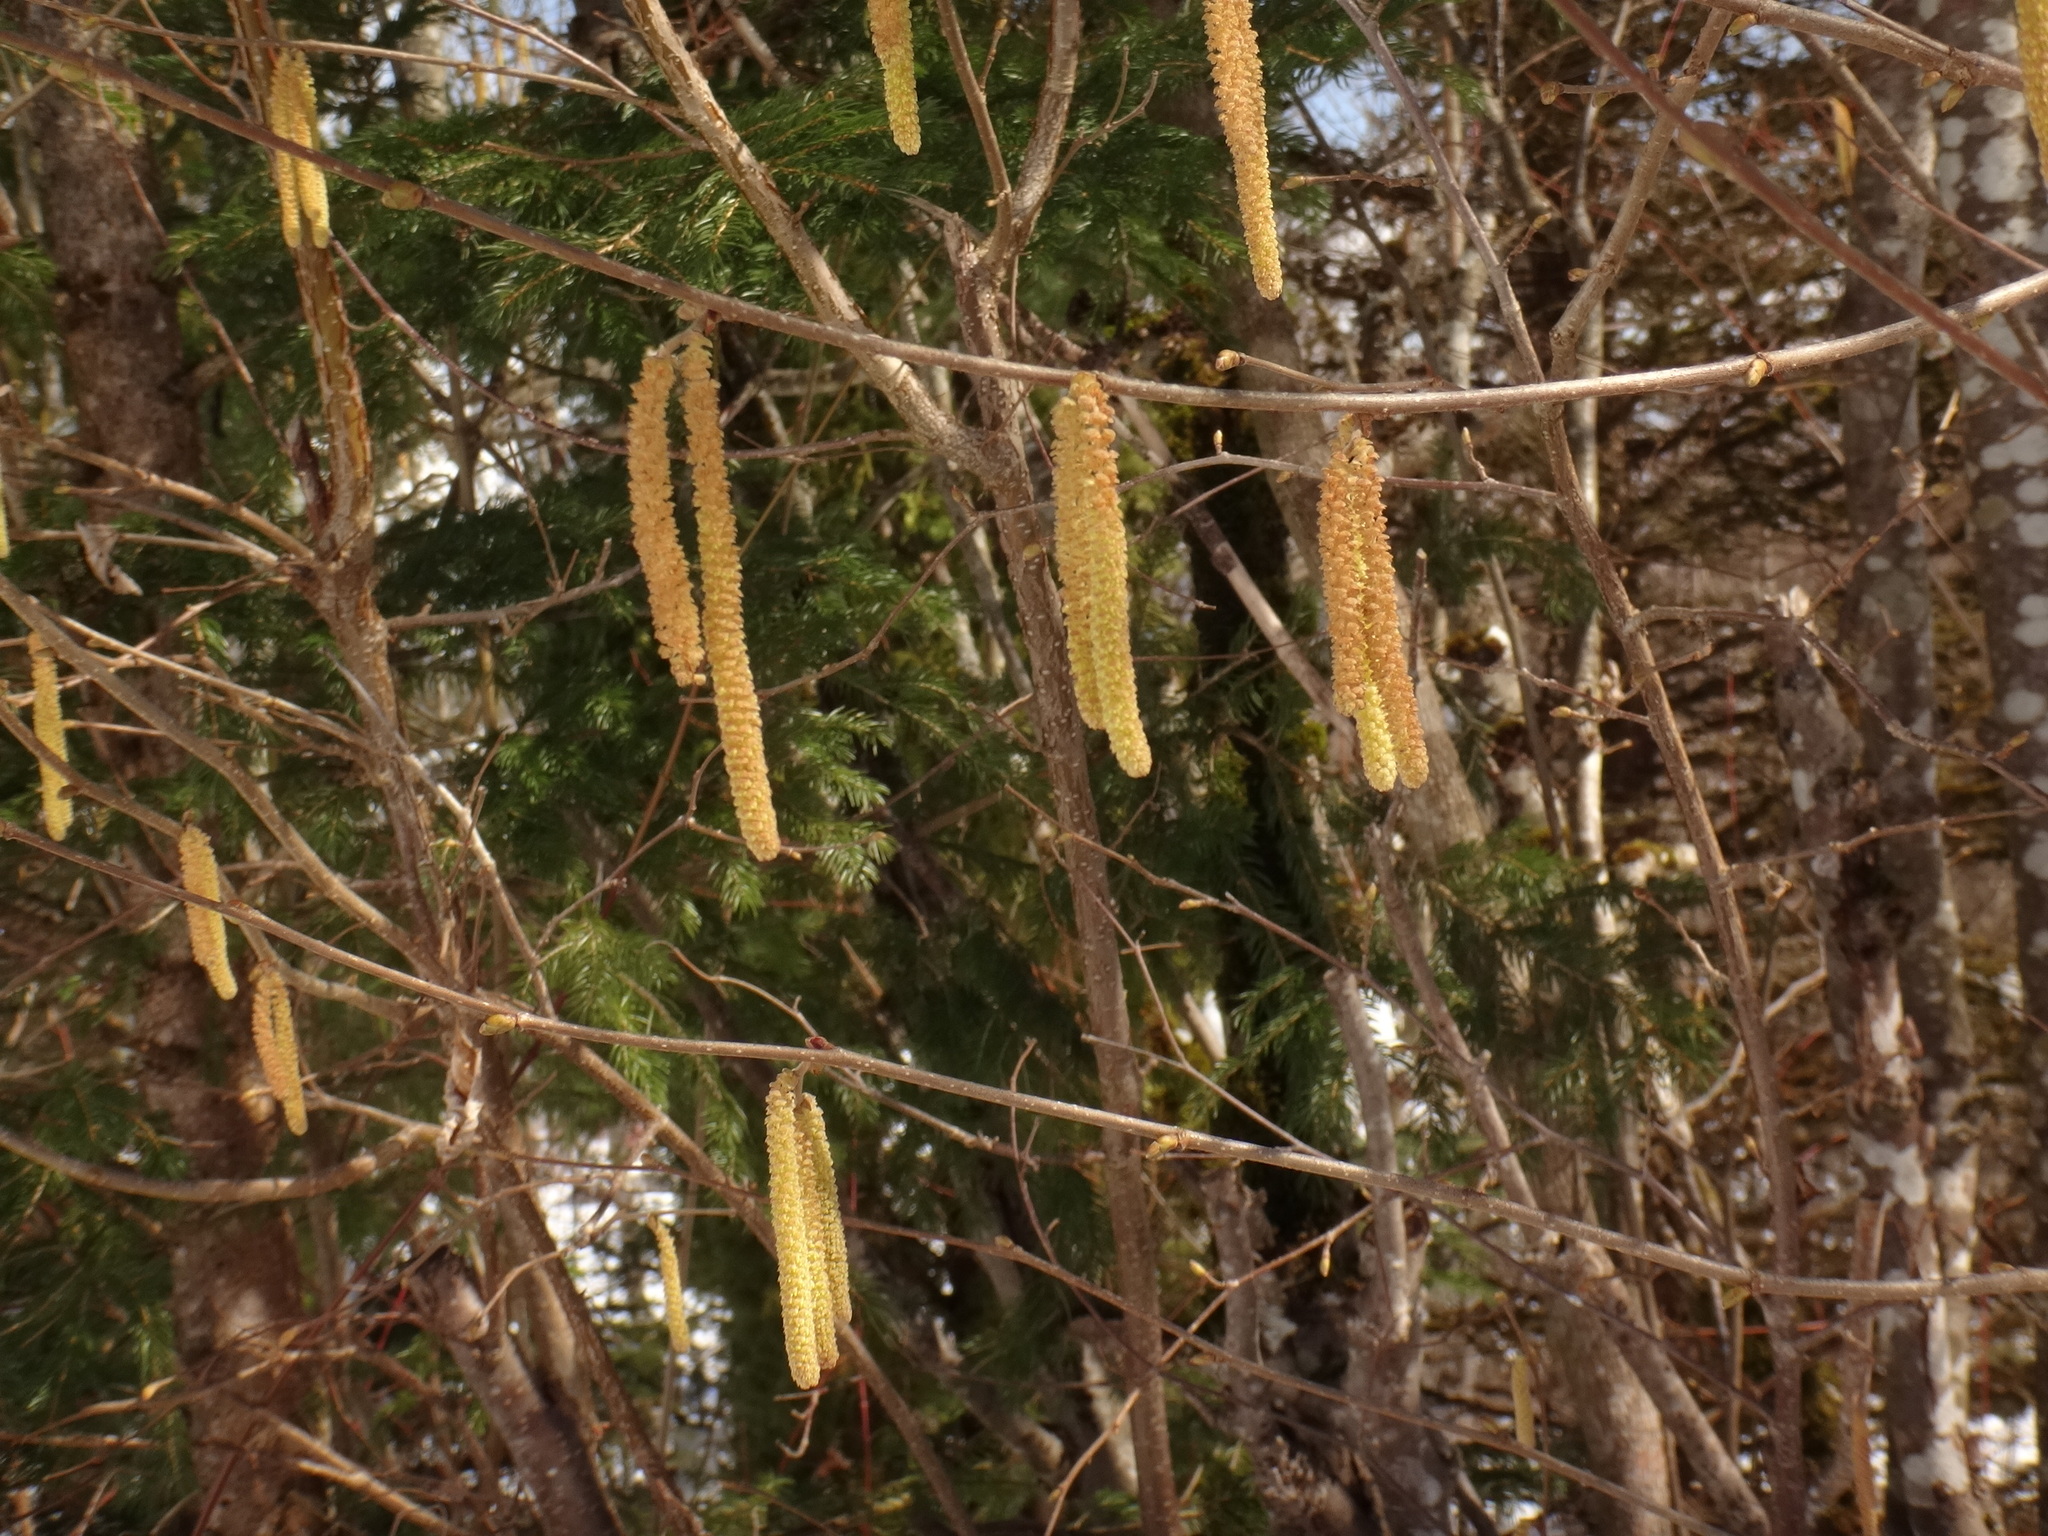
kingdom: Plantae
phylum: Tracheophyta
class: Magnoliopsida
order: Fagales
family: Betulaceae
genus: Corylus
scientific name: Corylus avellana
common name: European hazel
